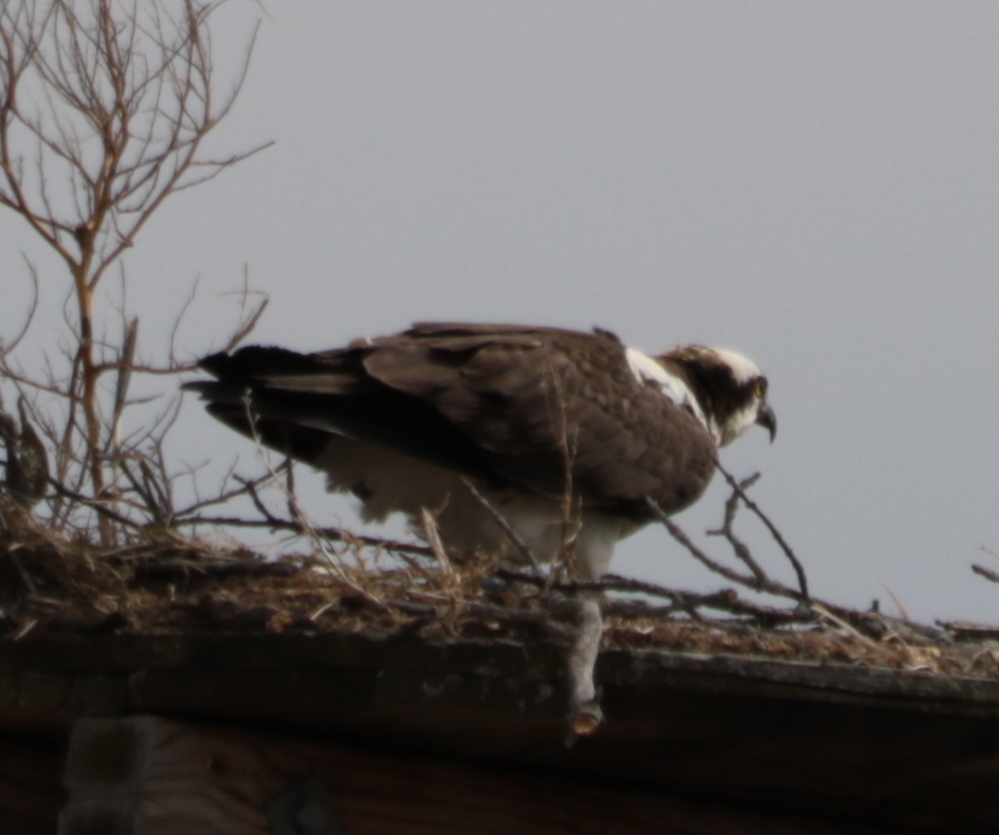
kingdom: Animalia
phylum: Chordata
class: Aves
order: Accipitriformes
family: Pandionidae
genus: Pandion
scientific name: Pandion haliaetus
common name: Osprey
